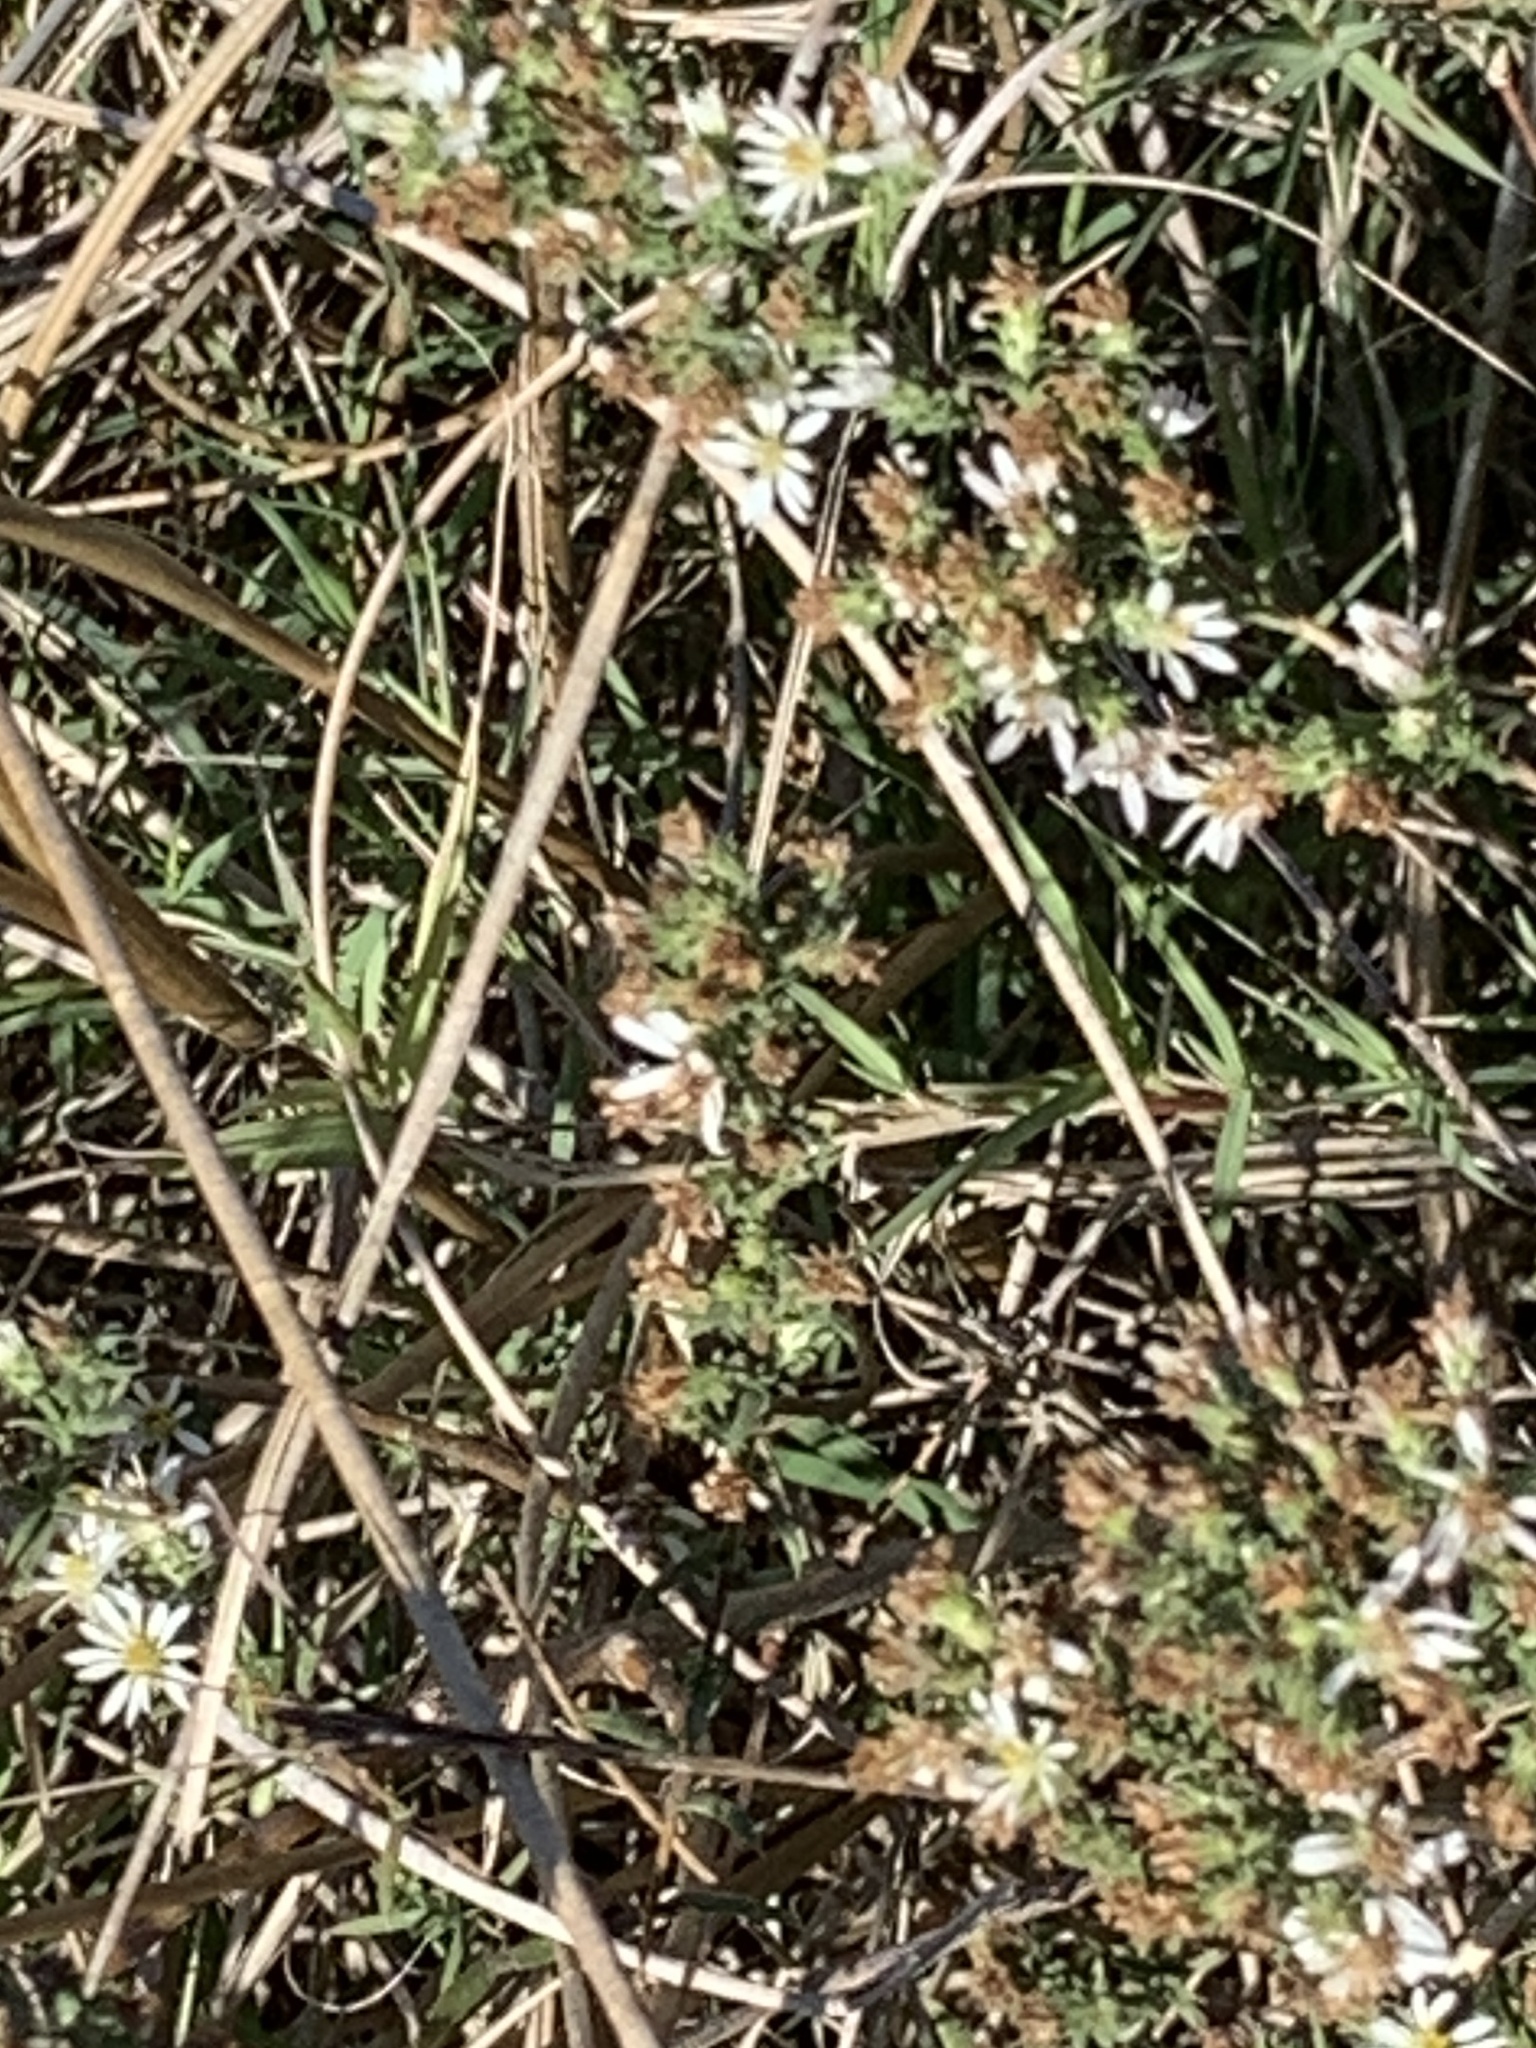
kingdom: Plantae
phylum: Tracheophyta
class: Magnoliopsida
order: Asterales
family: Asteraceae
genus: Symphyotrichum
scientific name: Symphyotrichum ericoides
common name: Heath aster
